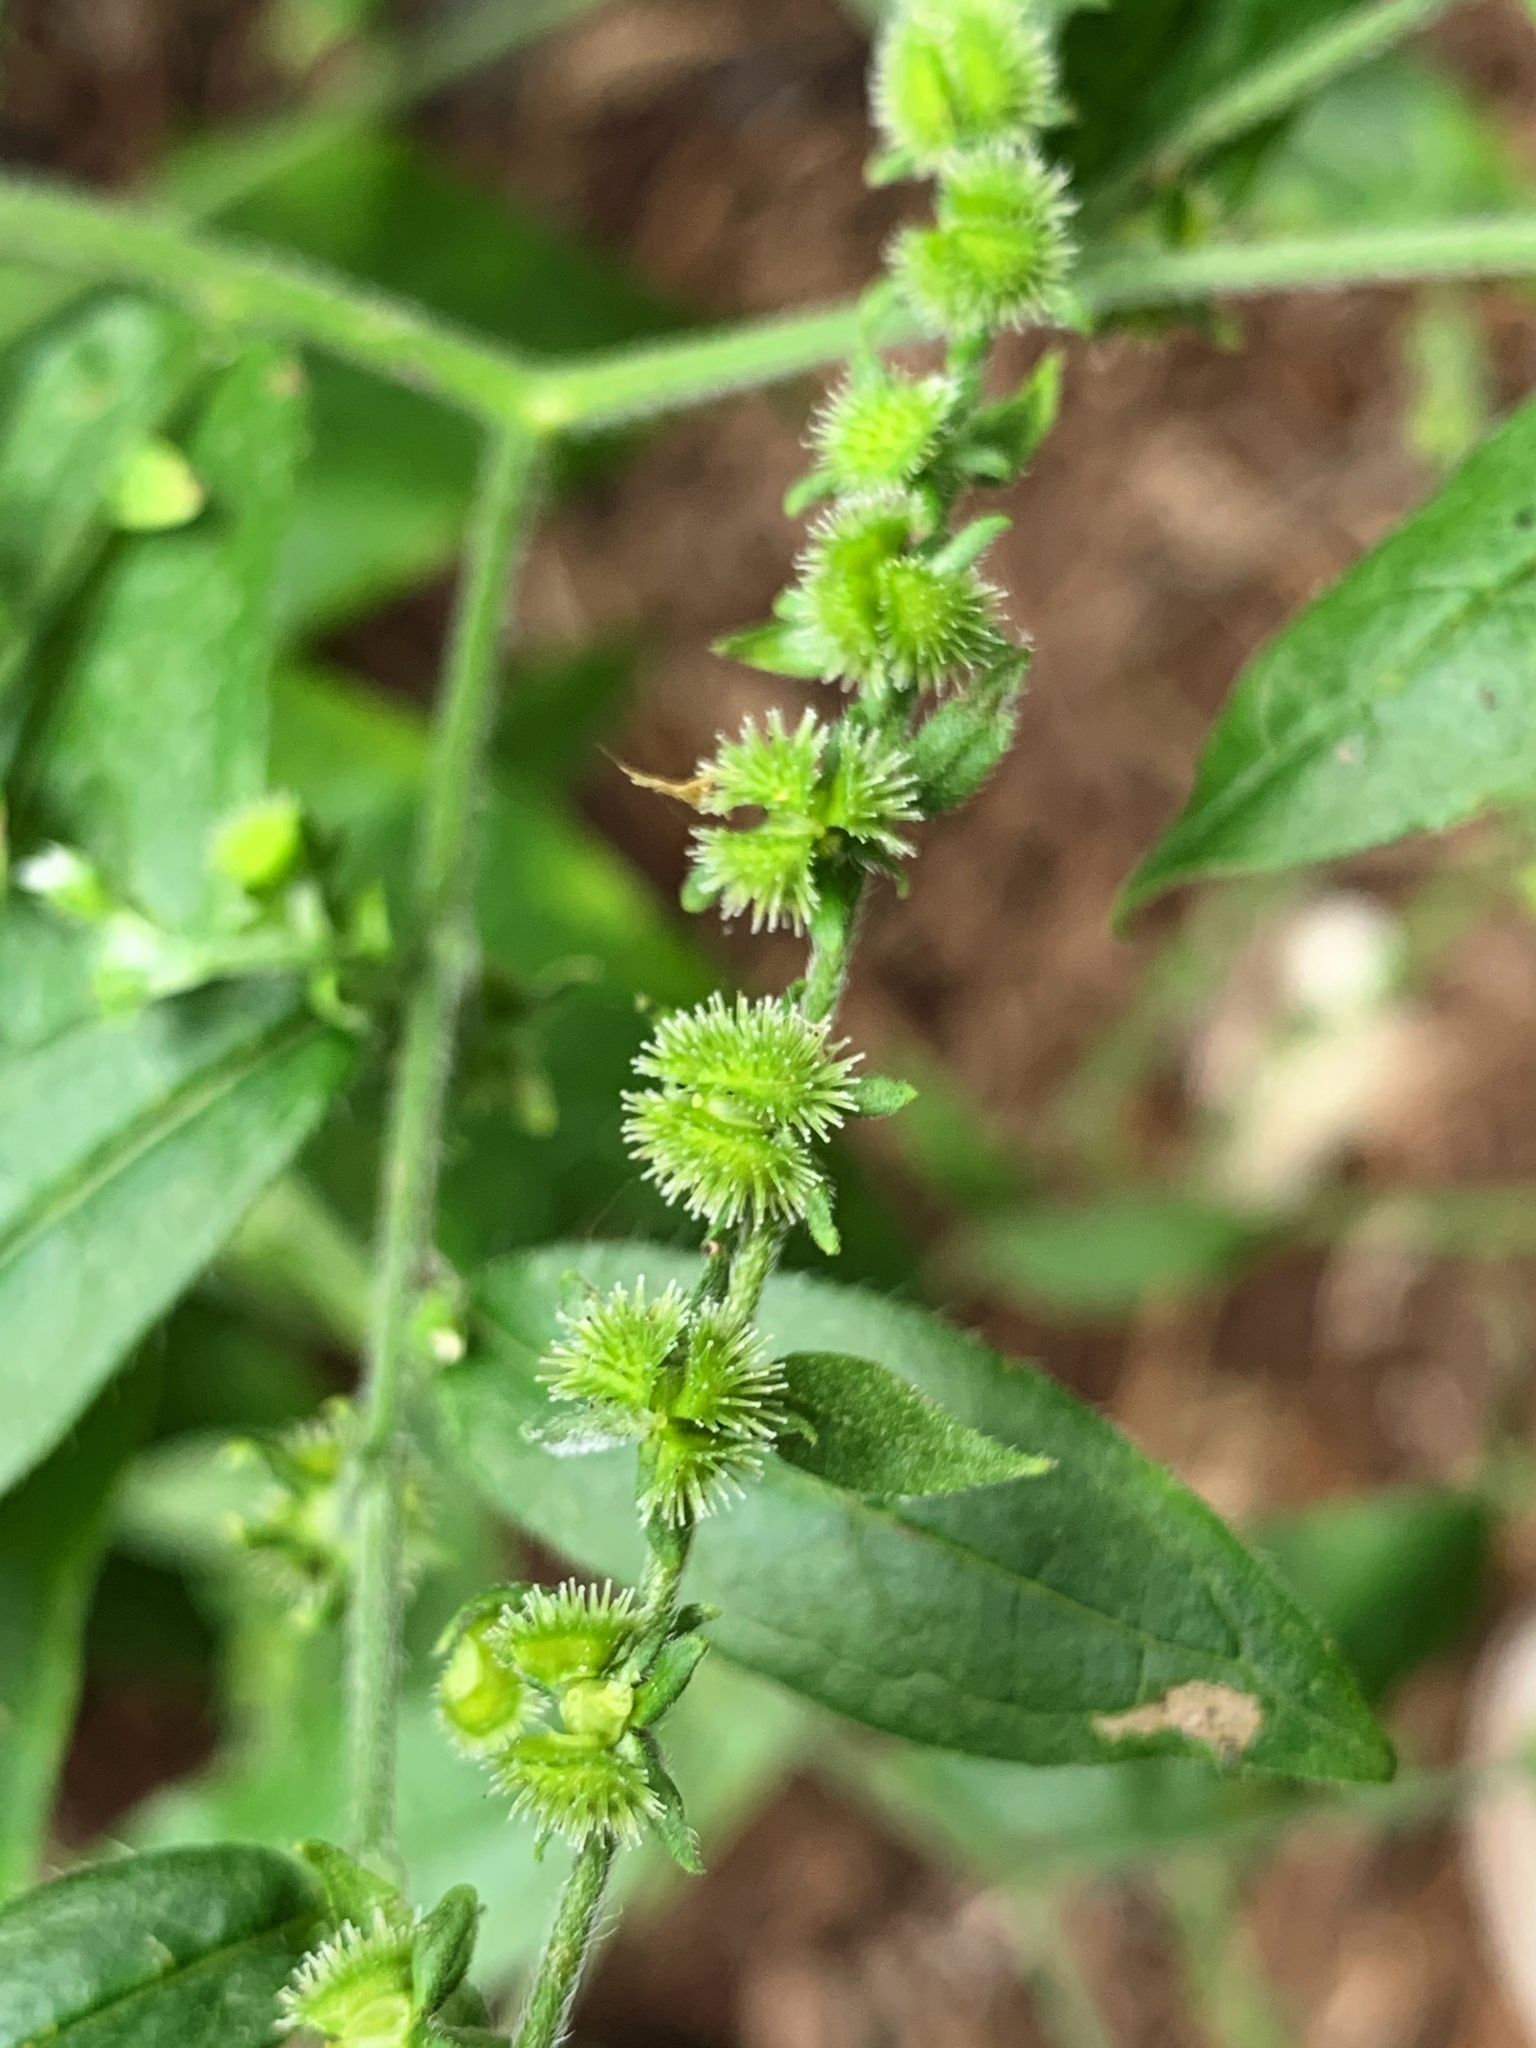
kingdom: Plantae
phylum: Tracheophyta
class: Magnoliopsida
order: Boraginales
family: Boraginaceae
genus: Hackelia
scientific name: Hackelia virginiana
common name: Beggar's-lice
